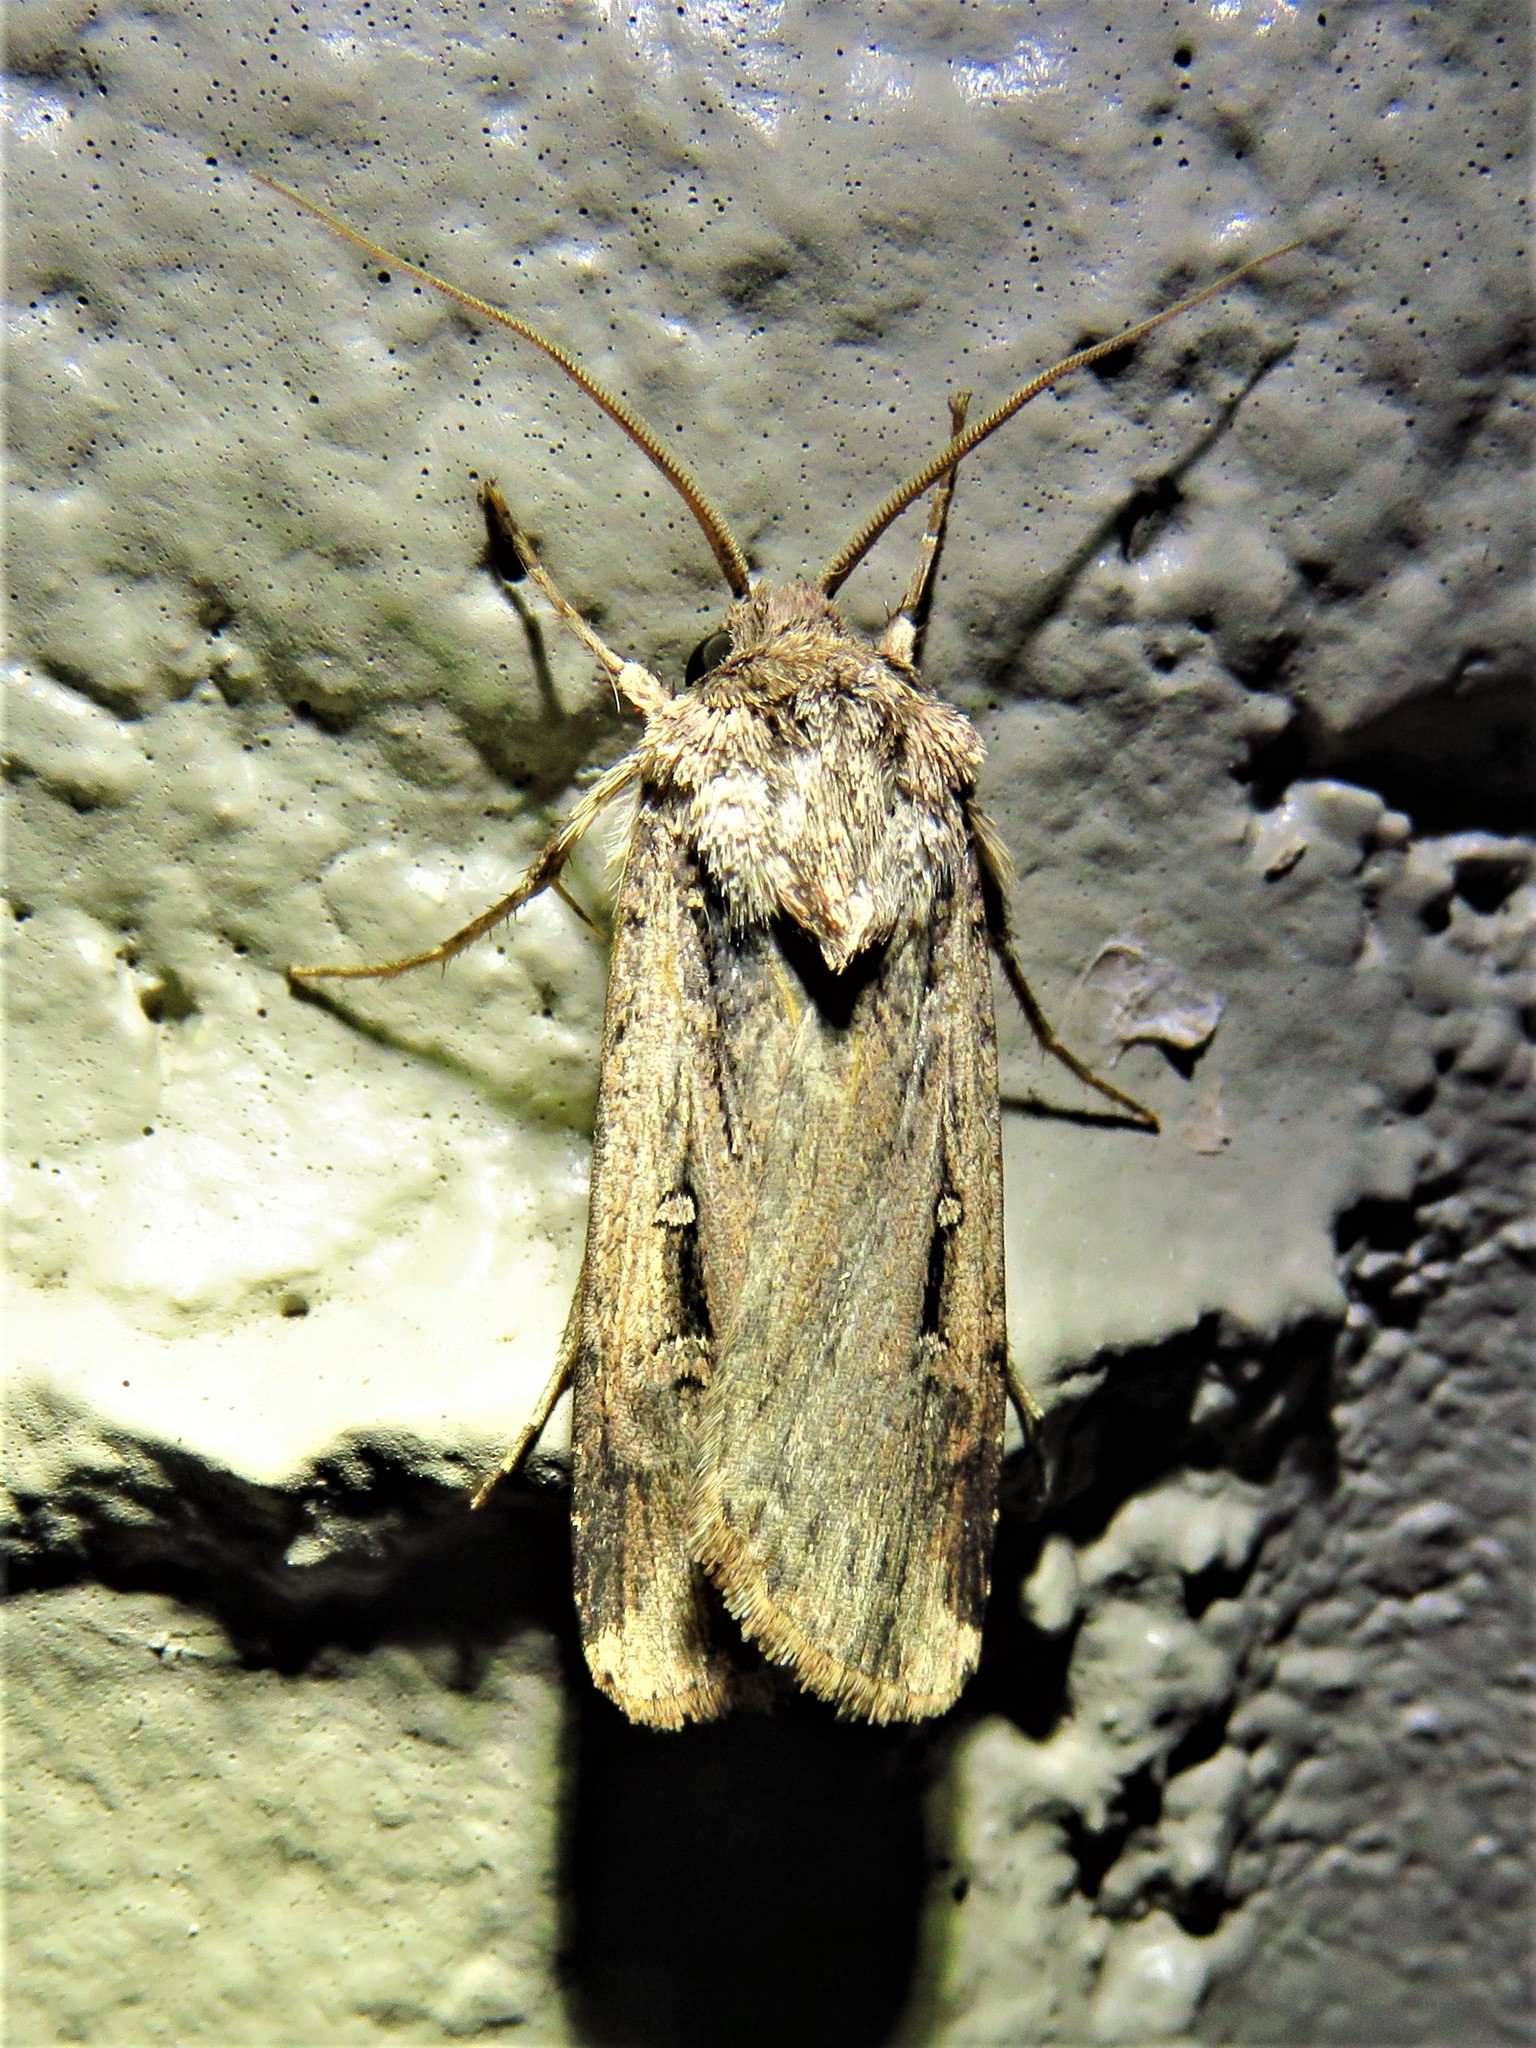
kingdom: Animalia
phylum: Arthropoda
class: Insecta
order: Lepidoptera
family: Noctuidae
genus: Feltia
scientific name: Feltia subterranea
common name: Granulate cutworm
